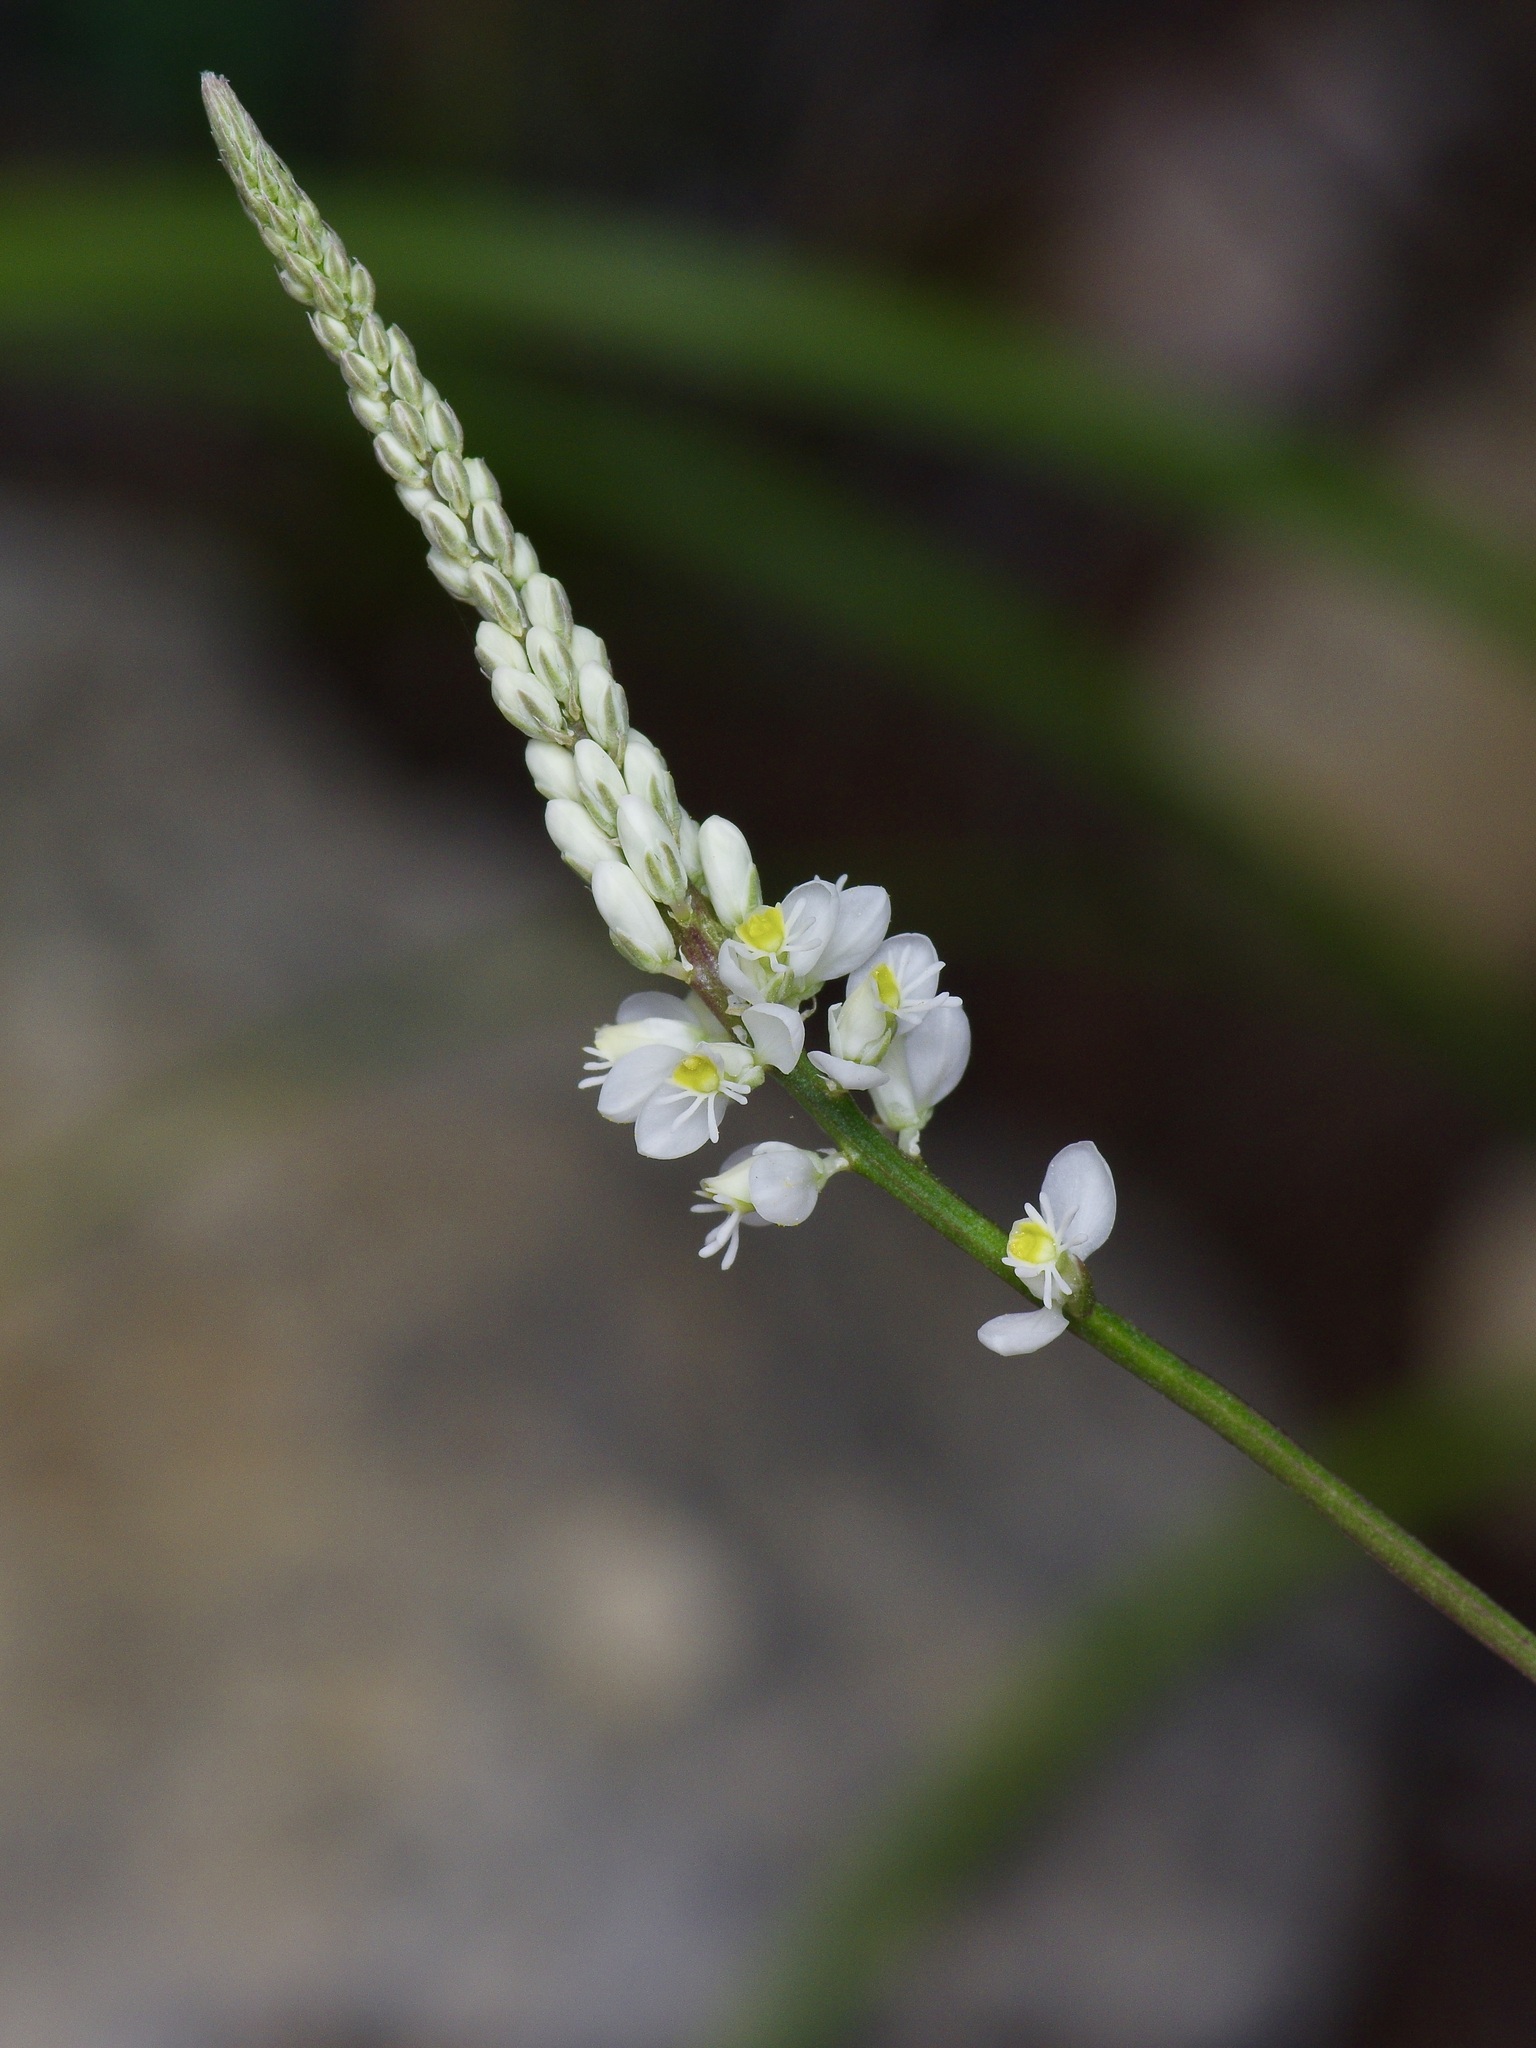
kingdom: Plantae
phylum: Tracheophyta
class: Magnoliopsida
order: Fabales
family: Polygalaceae
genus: Polygala
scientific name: Polygala alba
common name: White milkwort
